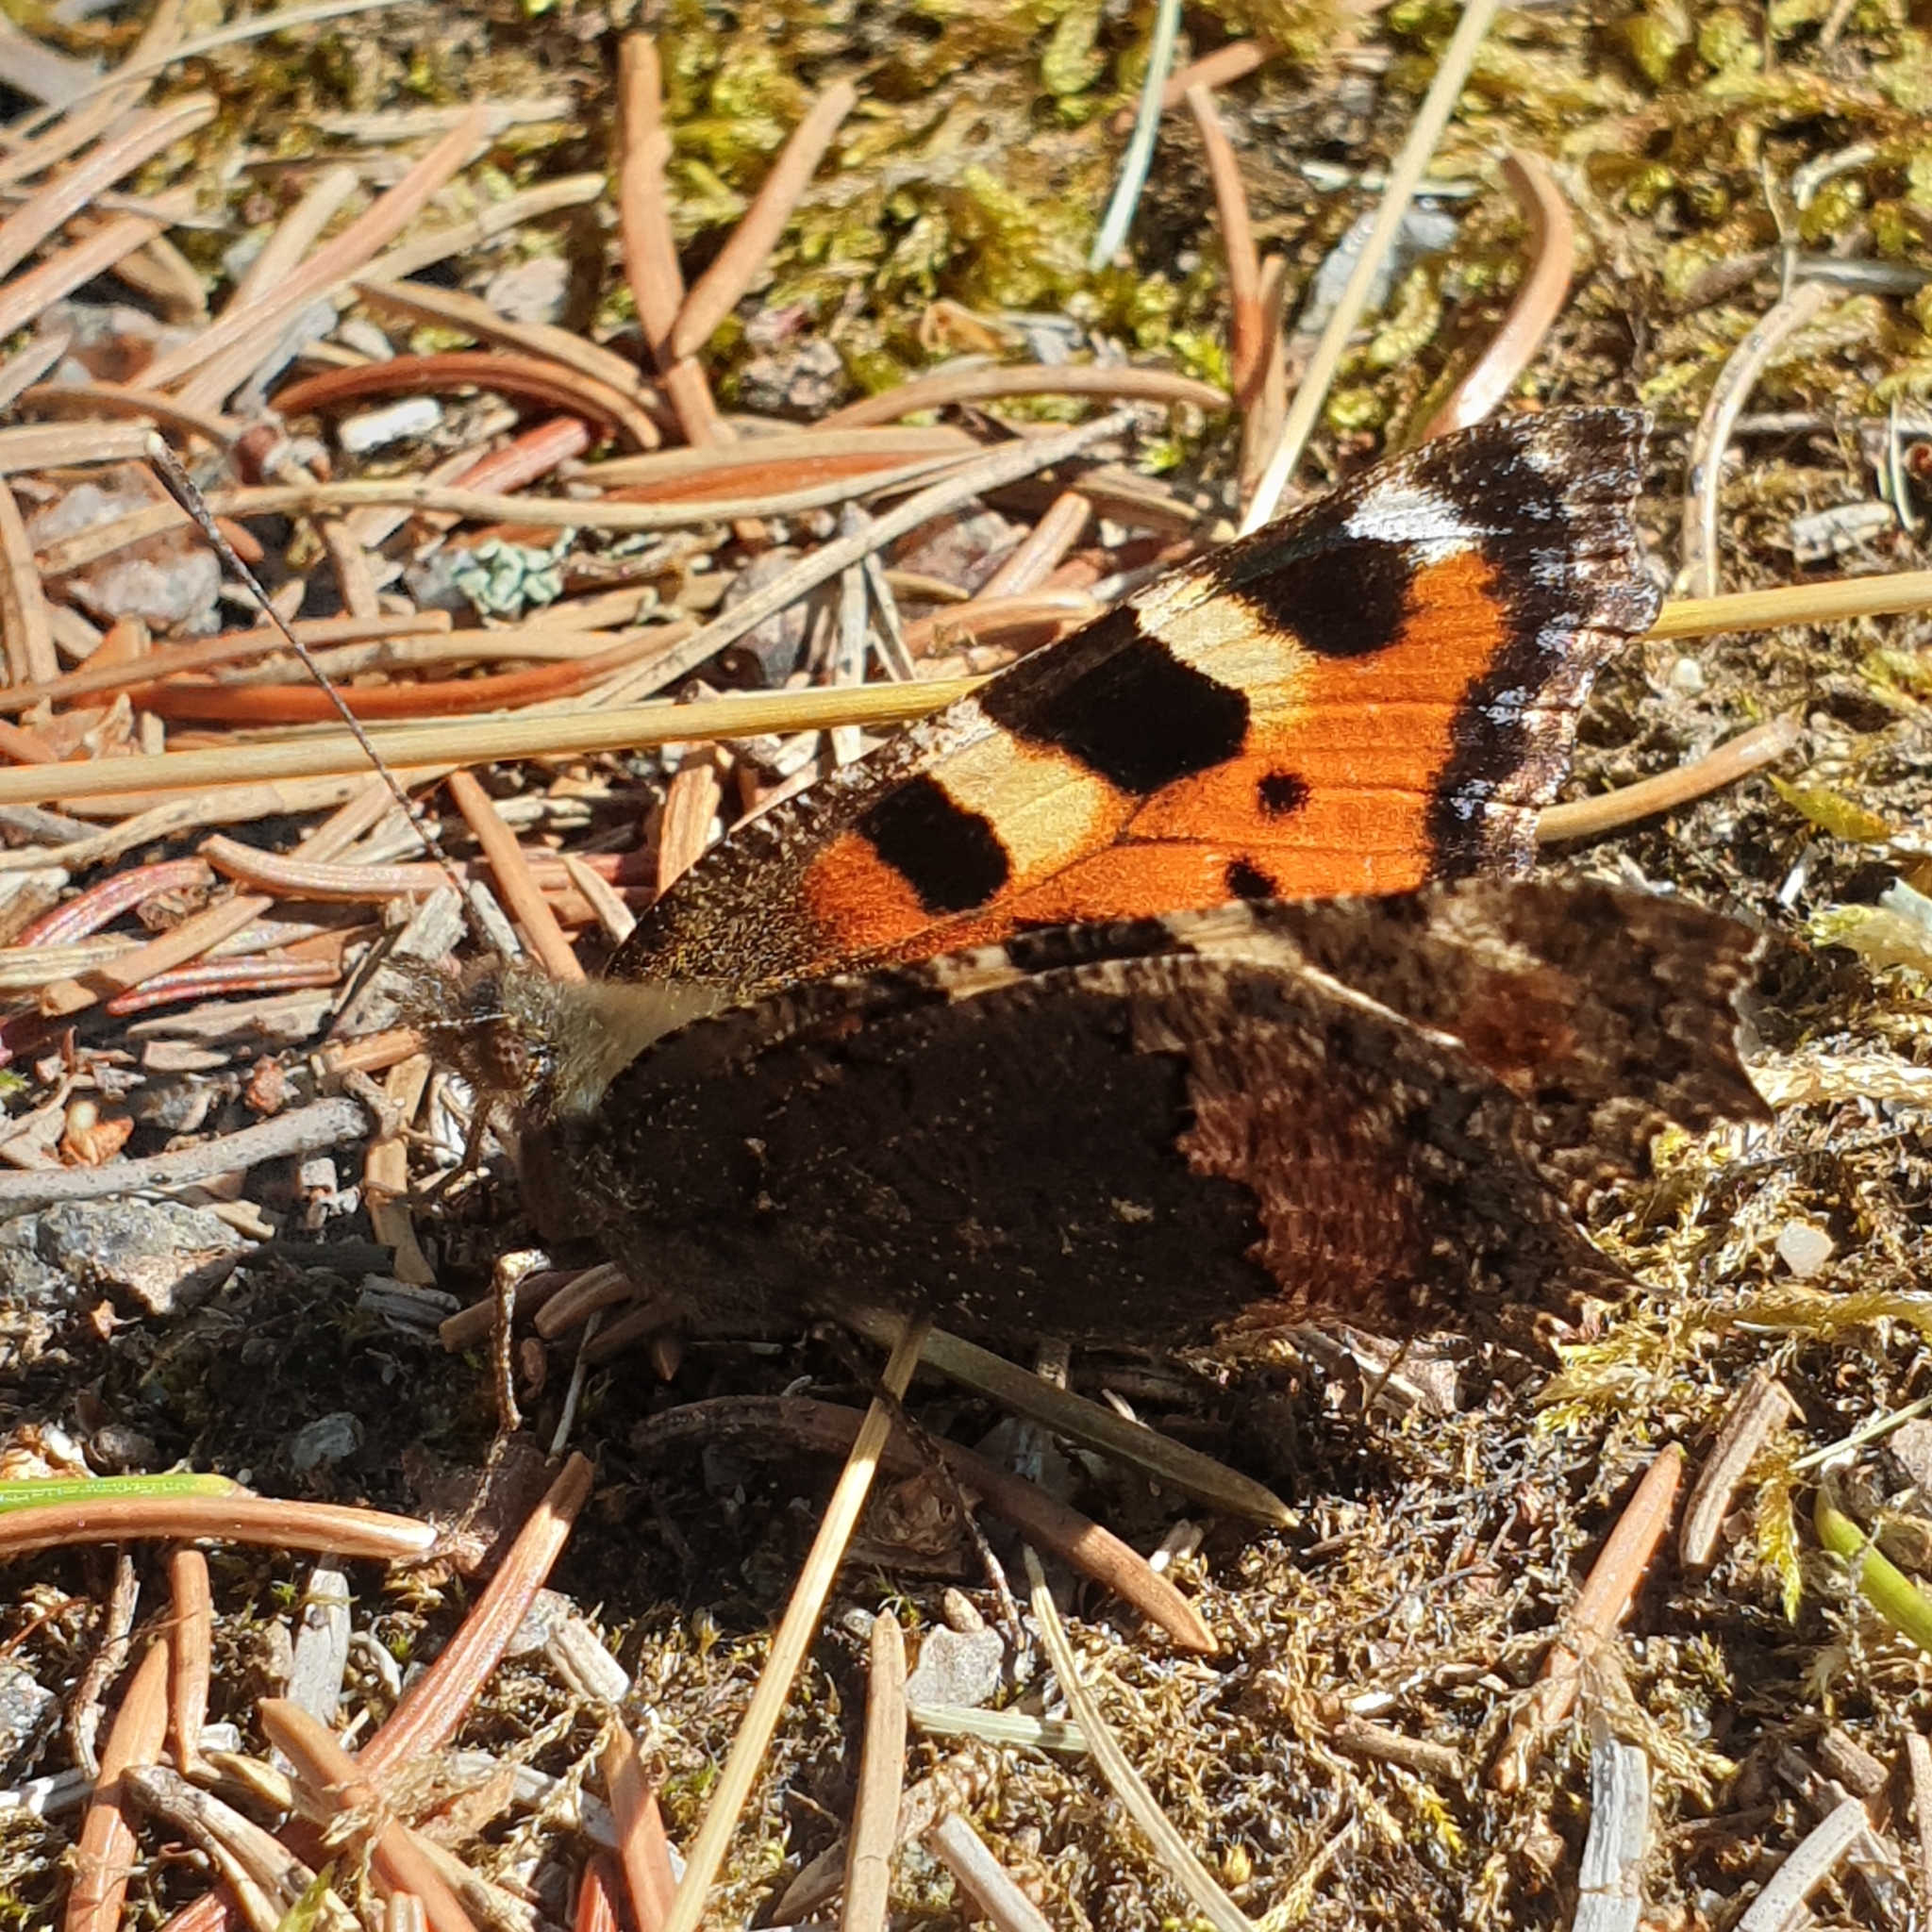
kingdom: Animalia
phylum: Arthropoda
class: Insecta
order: Lepidoptera
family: Nymphalidae
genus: Aglais
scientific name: Aglais urticae
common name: Small tortoiseshell
